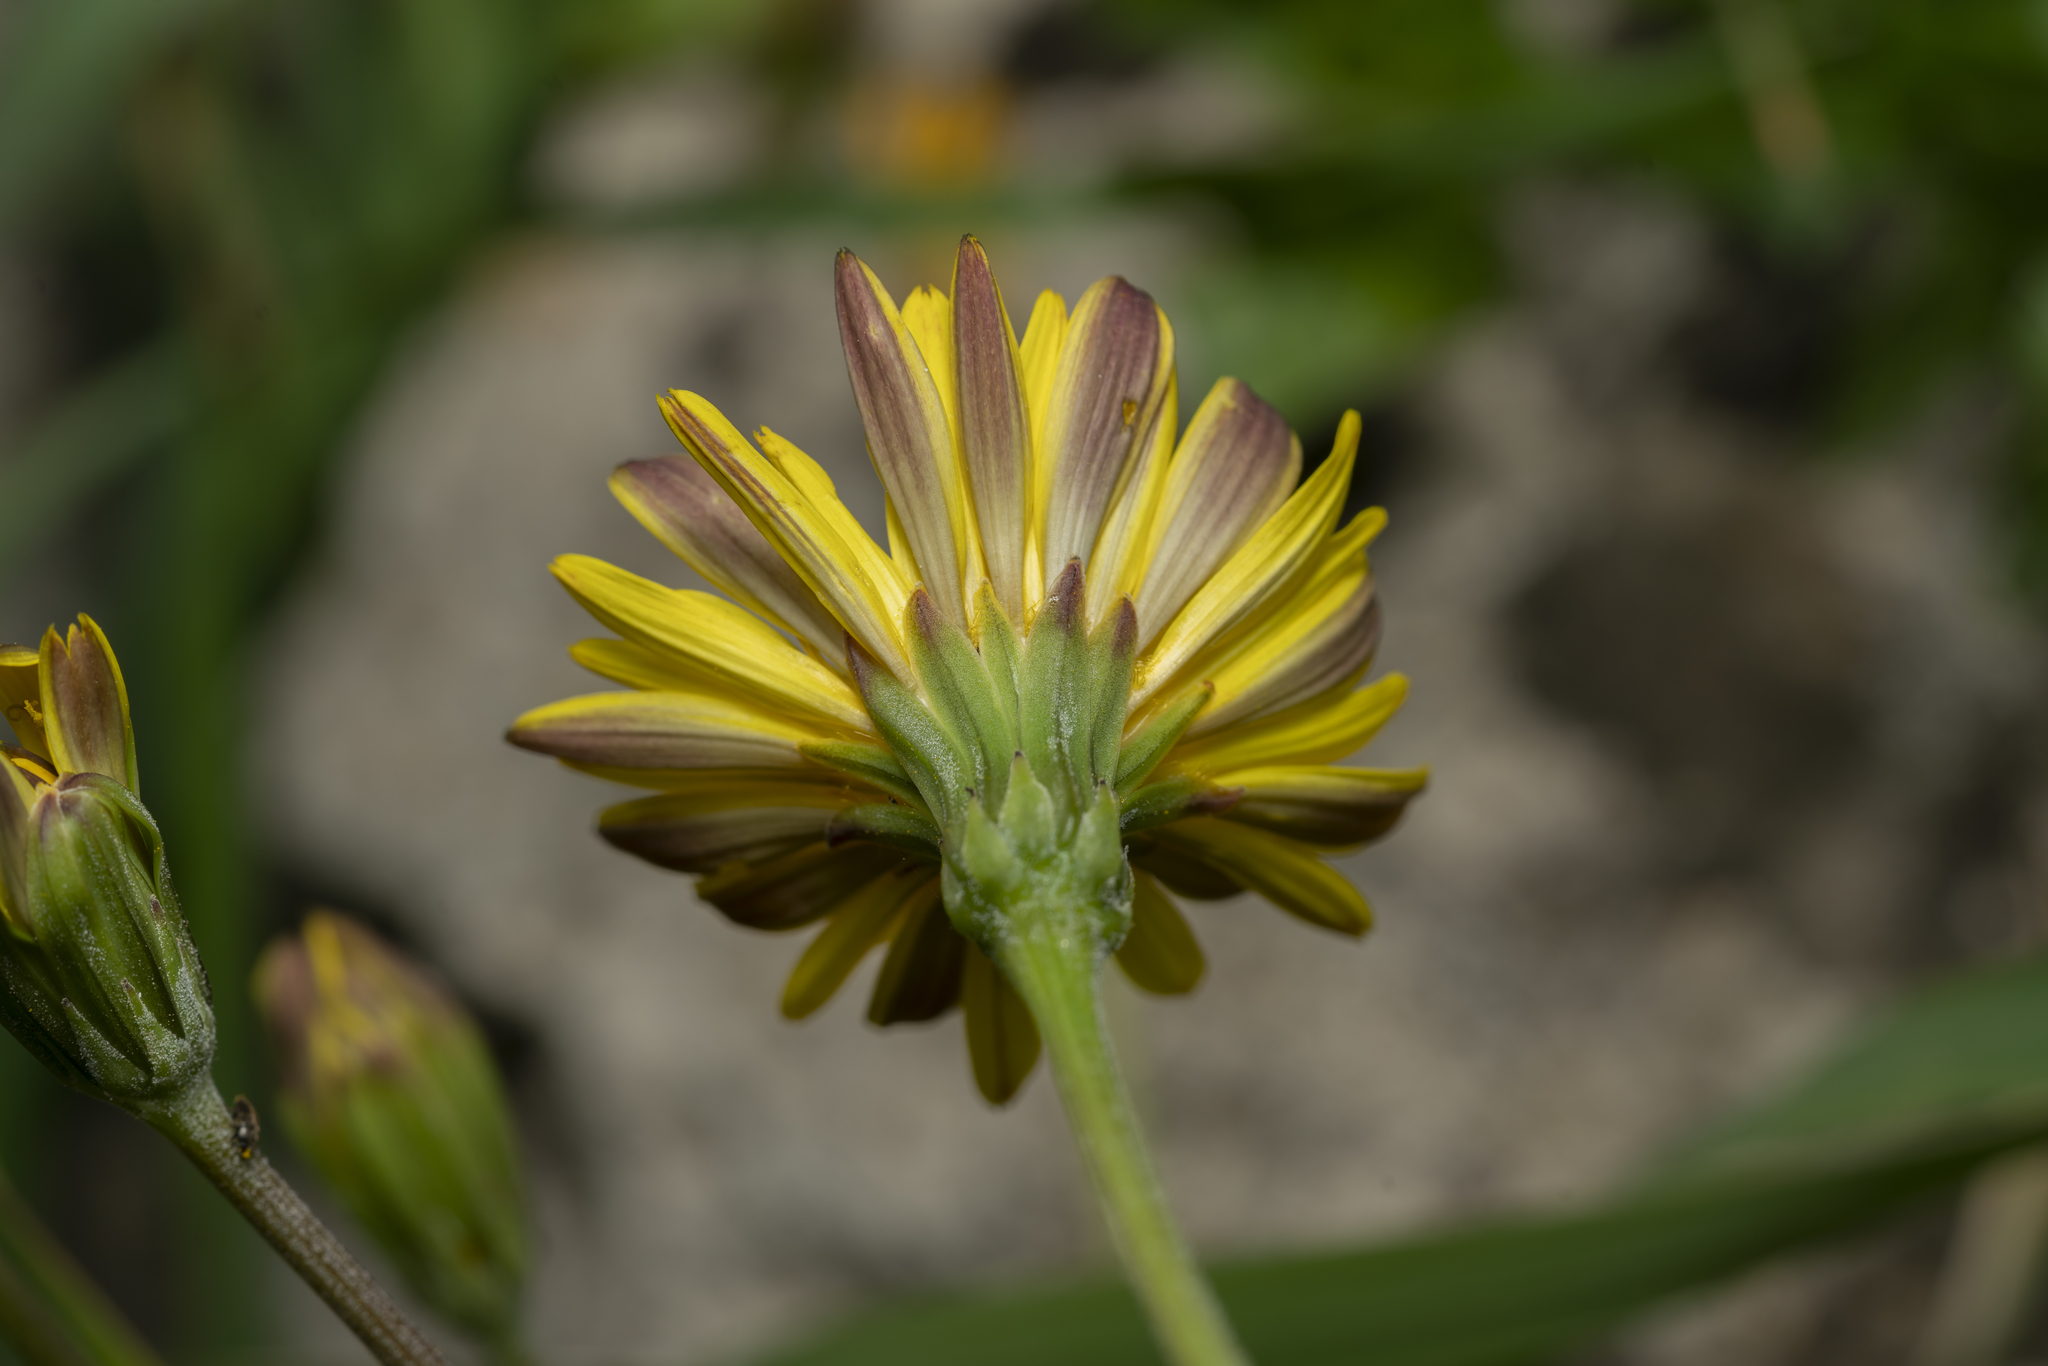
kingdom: Plantae
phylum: Tracheophyta
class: Magnoliopsida
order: Asterales
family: Asteraceae
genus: Hyoseris
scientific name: Hyoseris radiata
